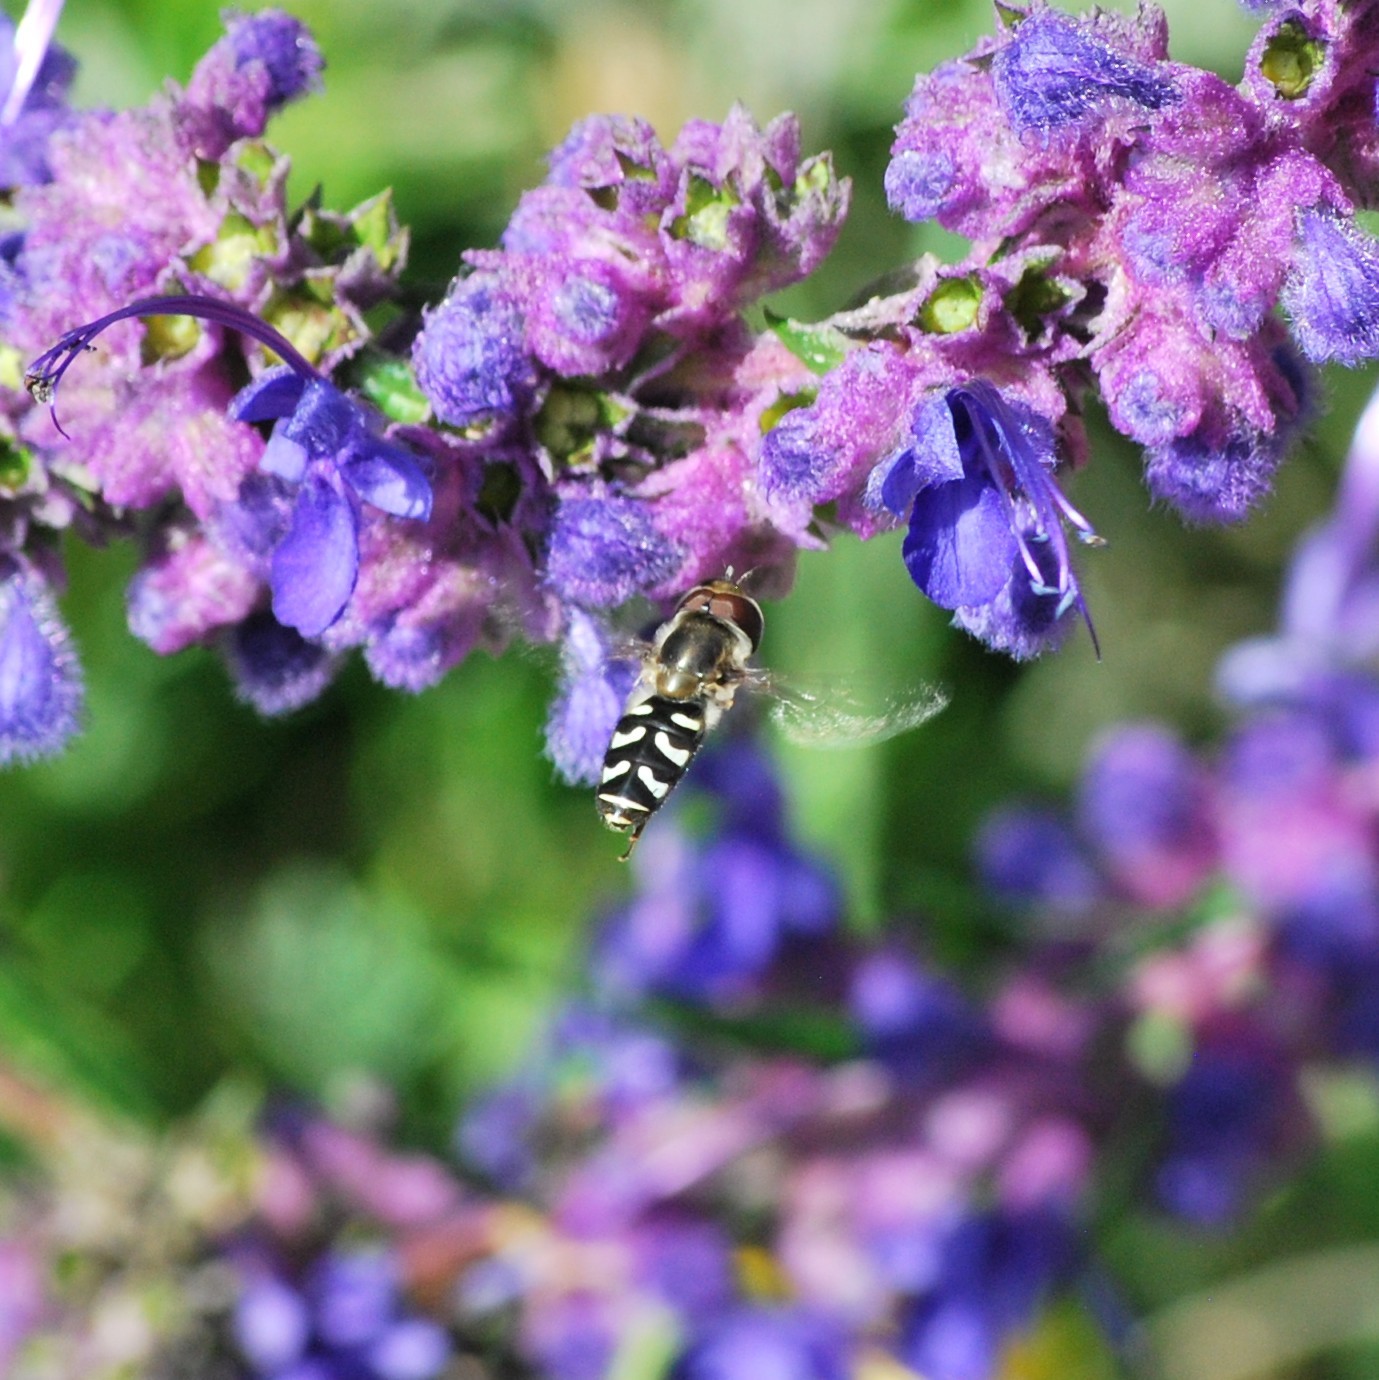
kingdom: Animalia
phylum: Arthropoda
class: Insecta
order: Diptera
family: Syrphidae
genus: Scaeva
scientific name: Scaeva affinis
